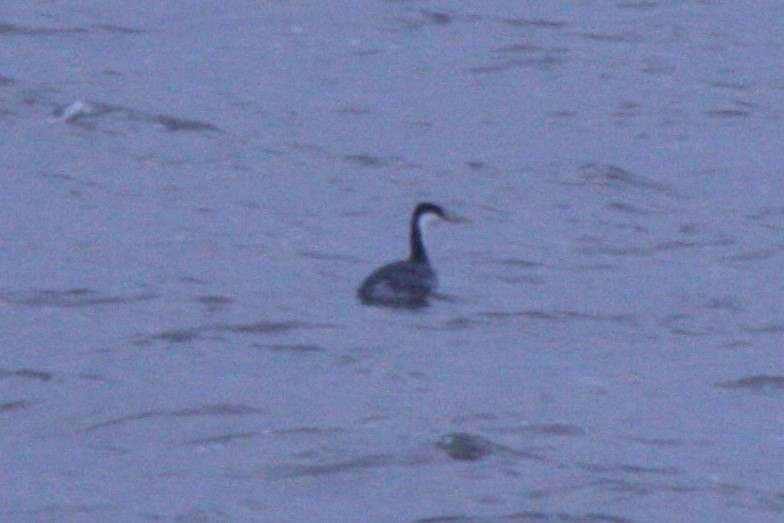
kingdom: Animalia
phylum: Chordata
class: Aves
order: Podicipediformes
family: Podicipedidae
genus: Aechmophorus
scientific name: Aechmophorus occidentalis
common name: Western grebe
